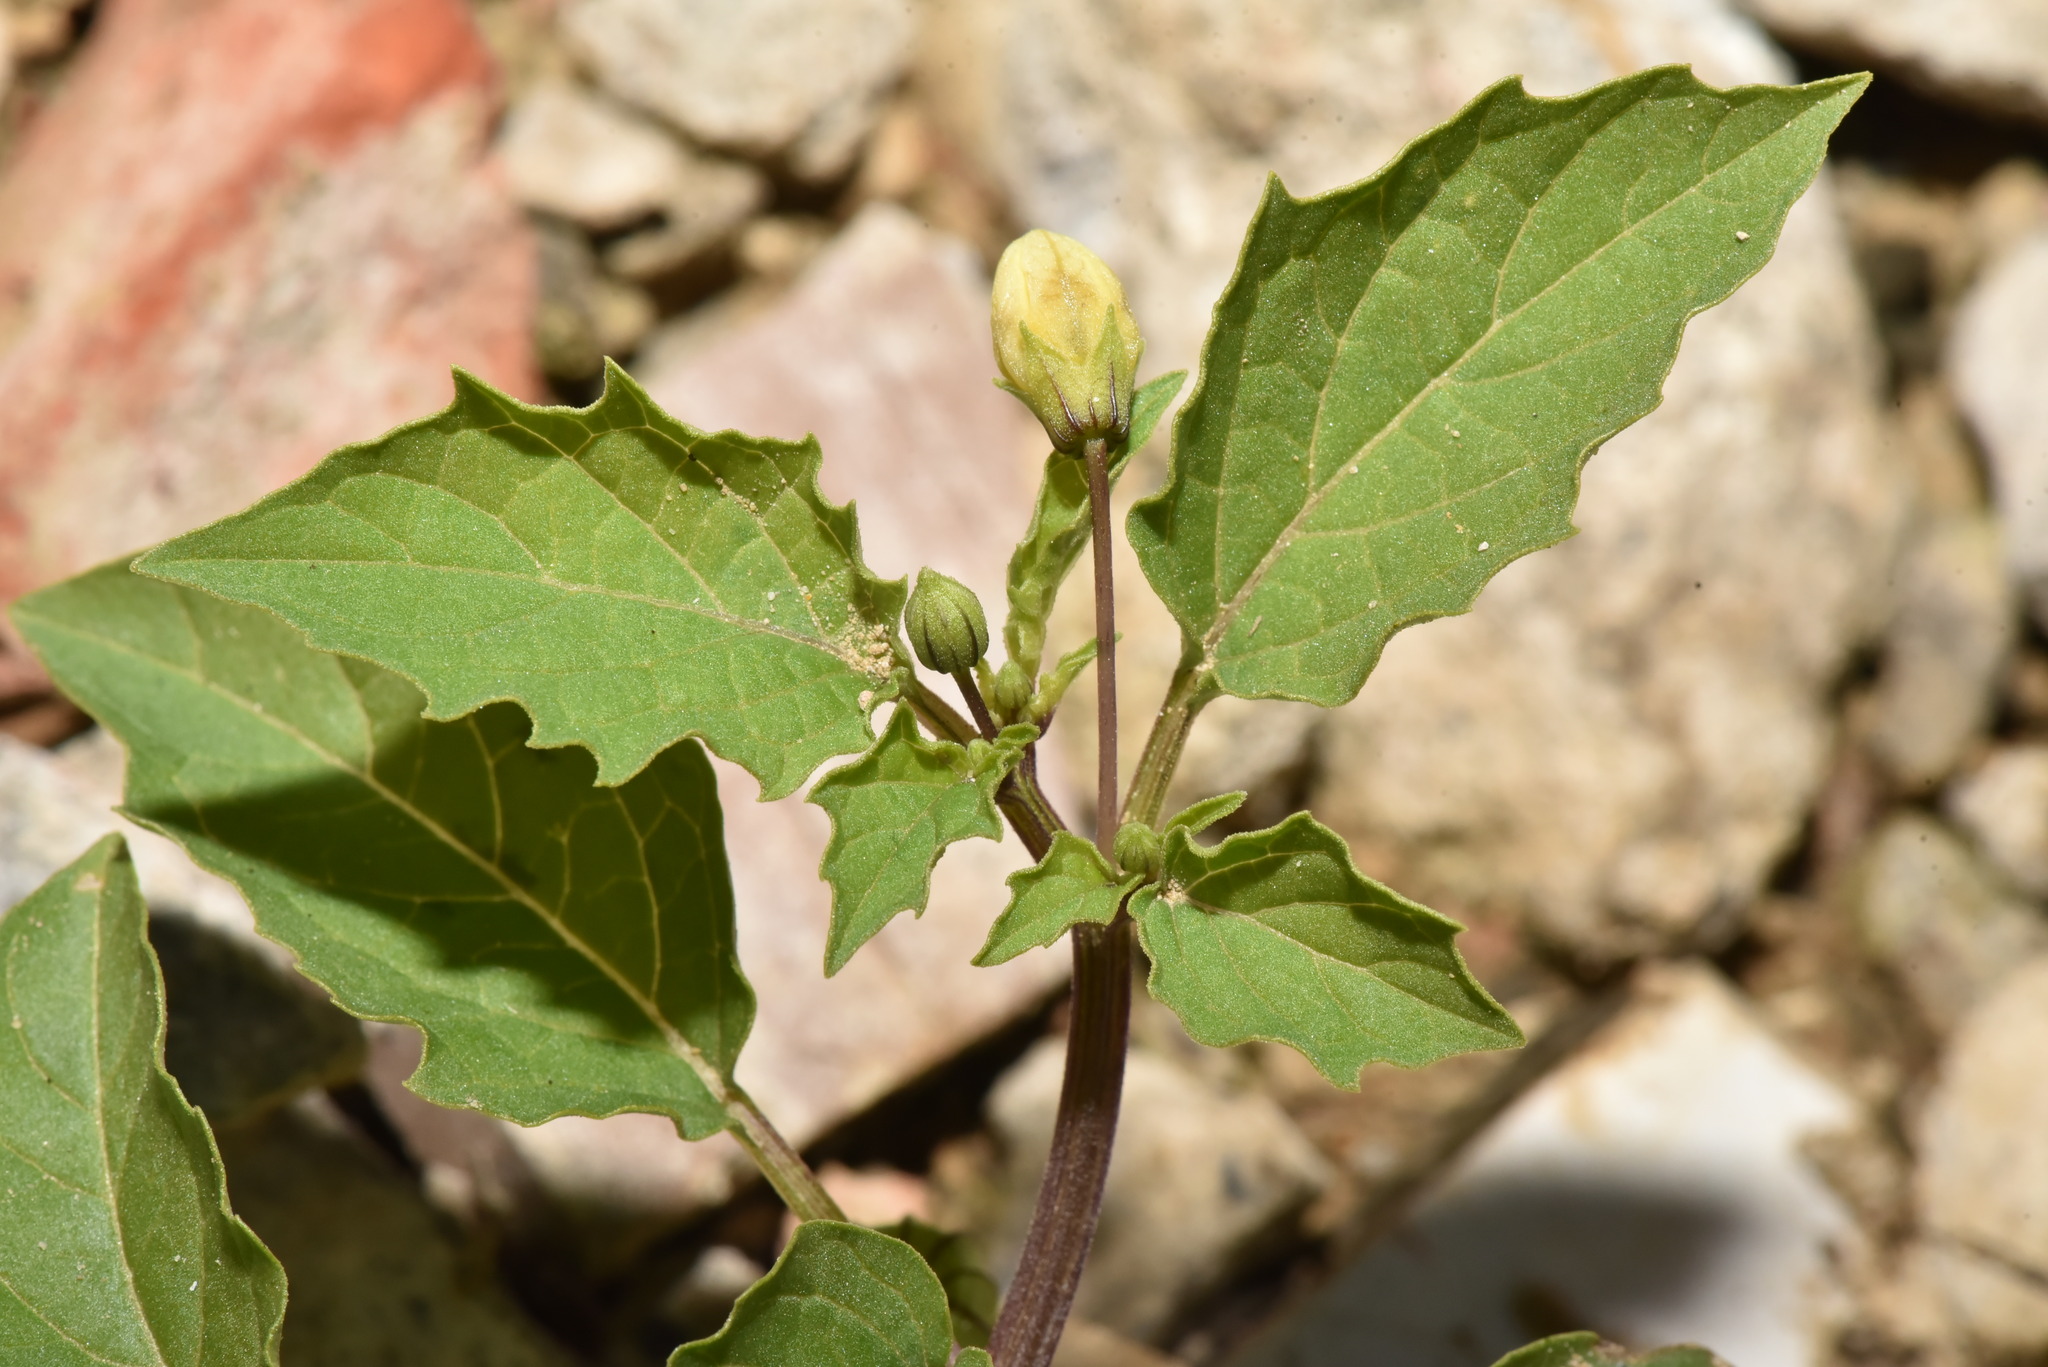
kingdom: Plantae
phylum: Tracheophyta
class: Magnoliopsida
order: Solanales
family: Solanaceae
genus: Physalis
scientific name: Physalis angulata
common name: Angular winter-cherry
